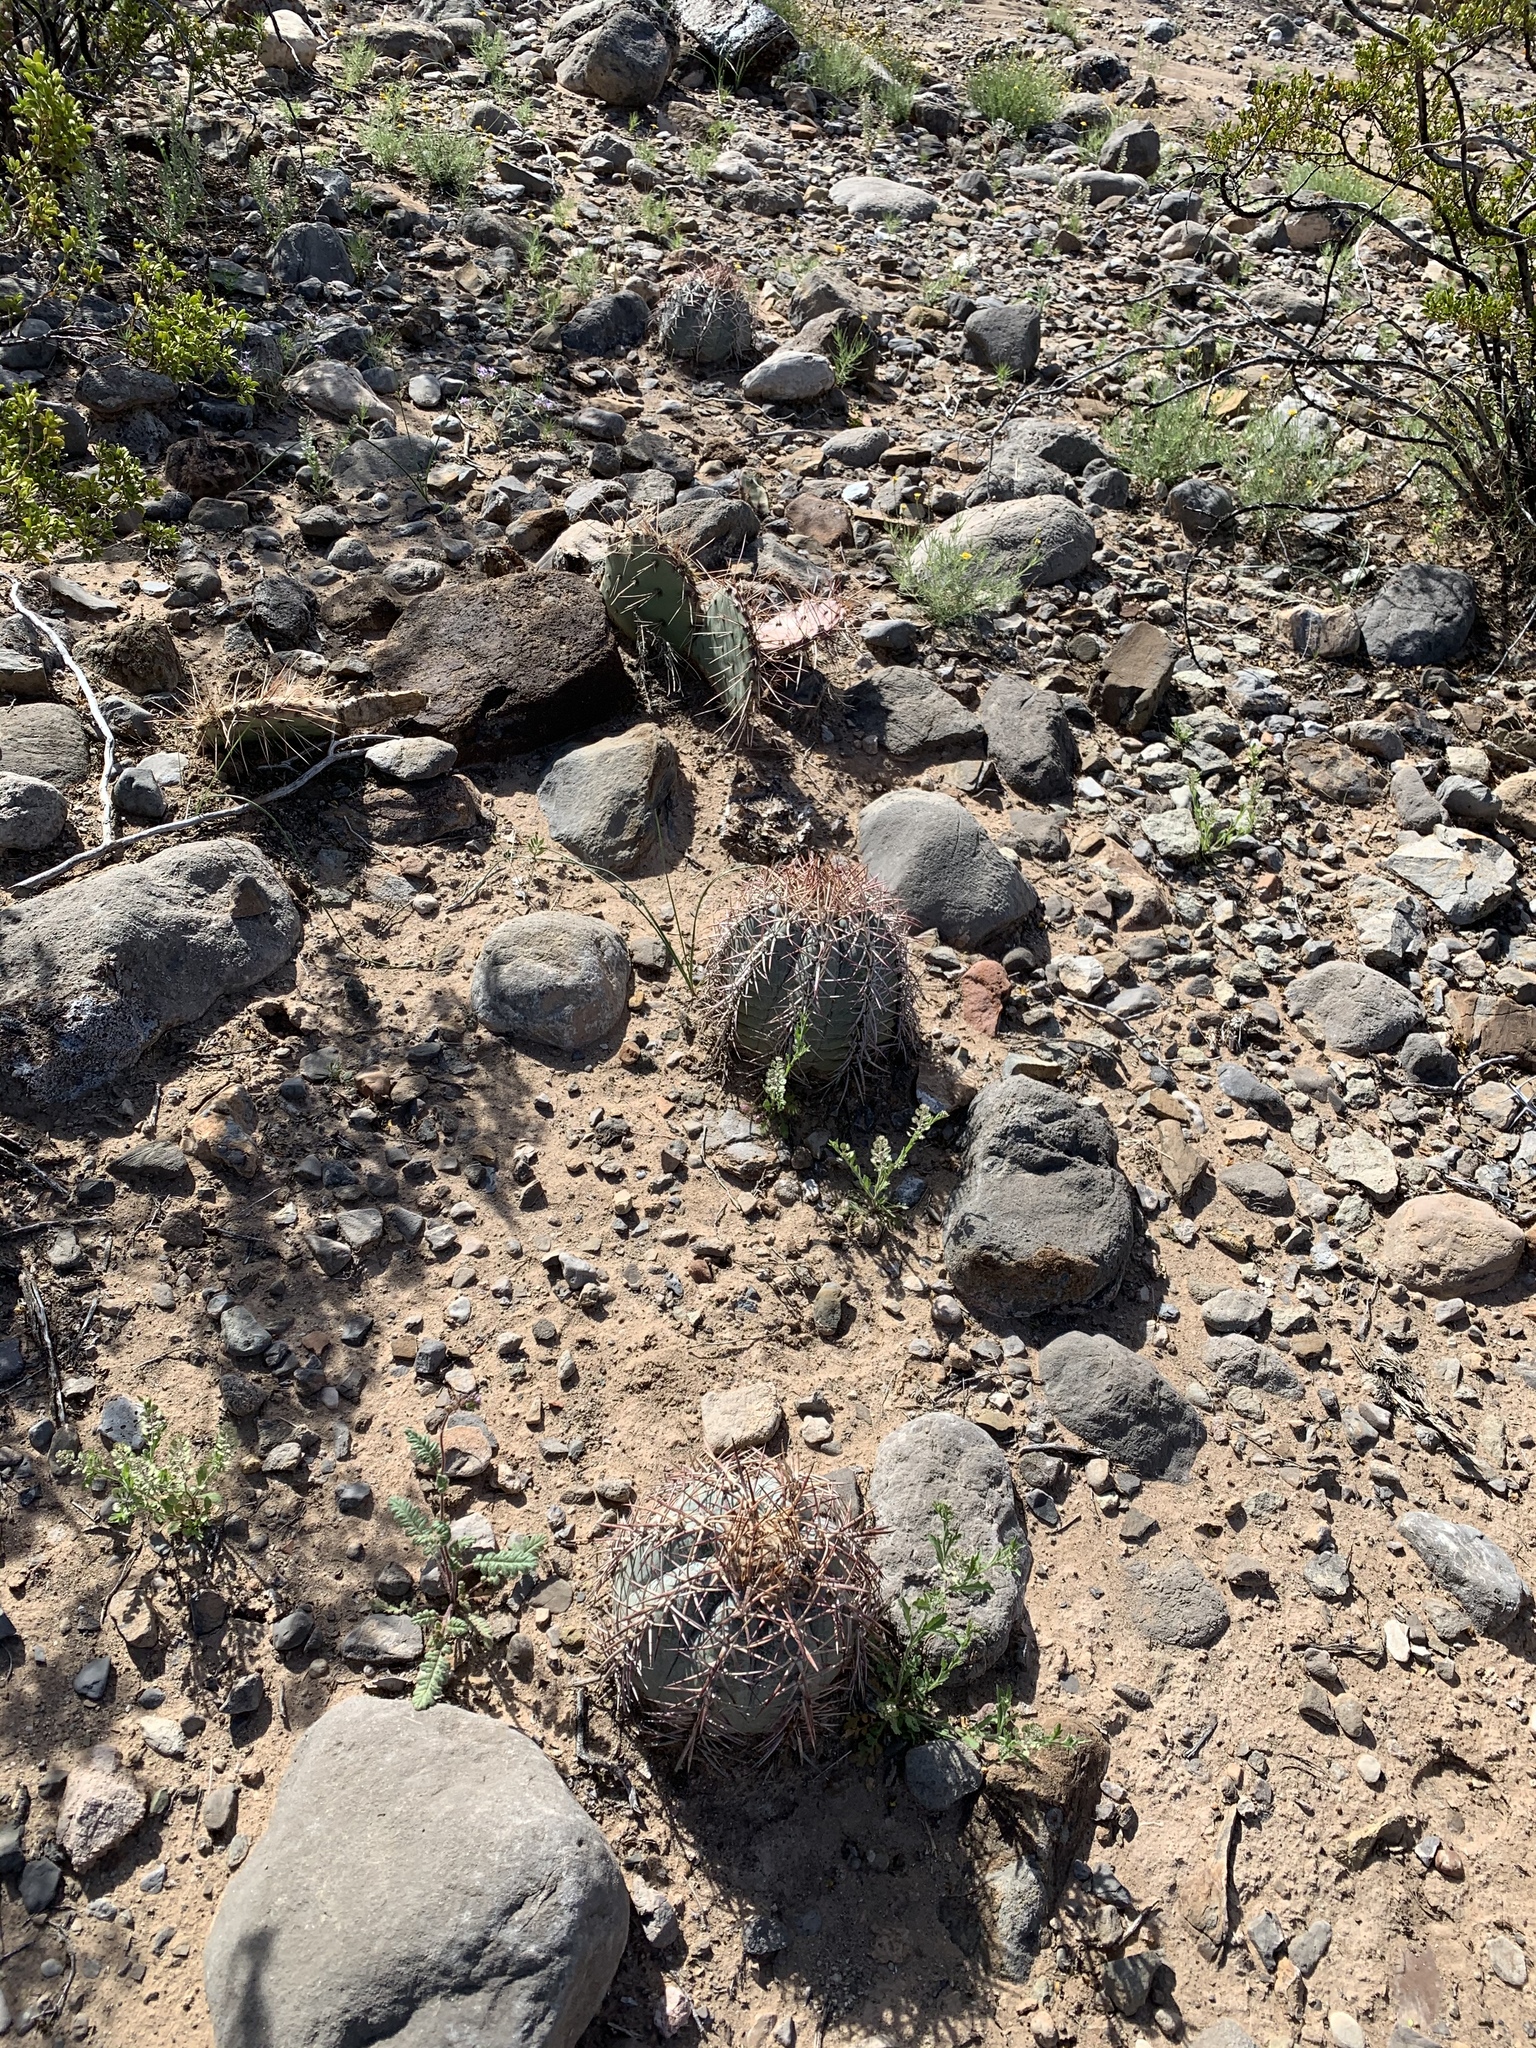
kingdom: Plantae
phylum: Tracheophyta
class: Magnoliopsida
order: Caryophyllales
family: Cactaceae
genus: Echinocactus
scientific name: Echinocactus horizonthalonius
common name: Devilshead
